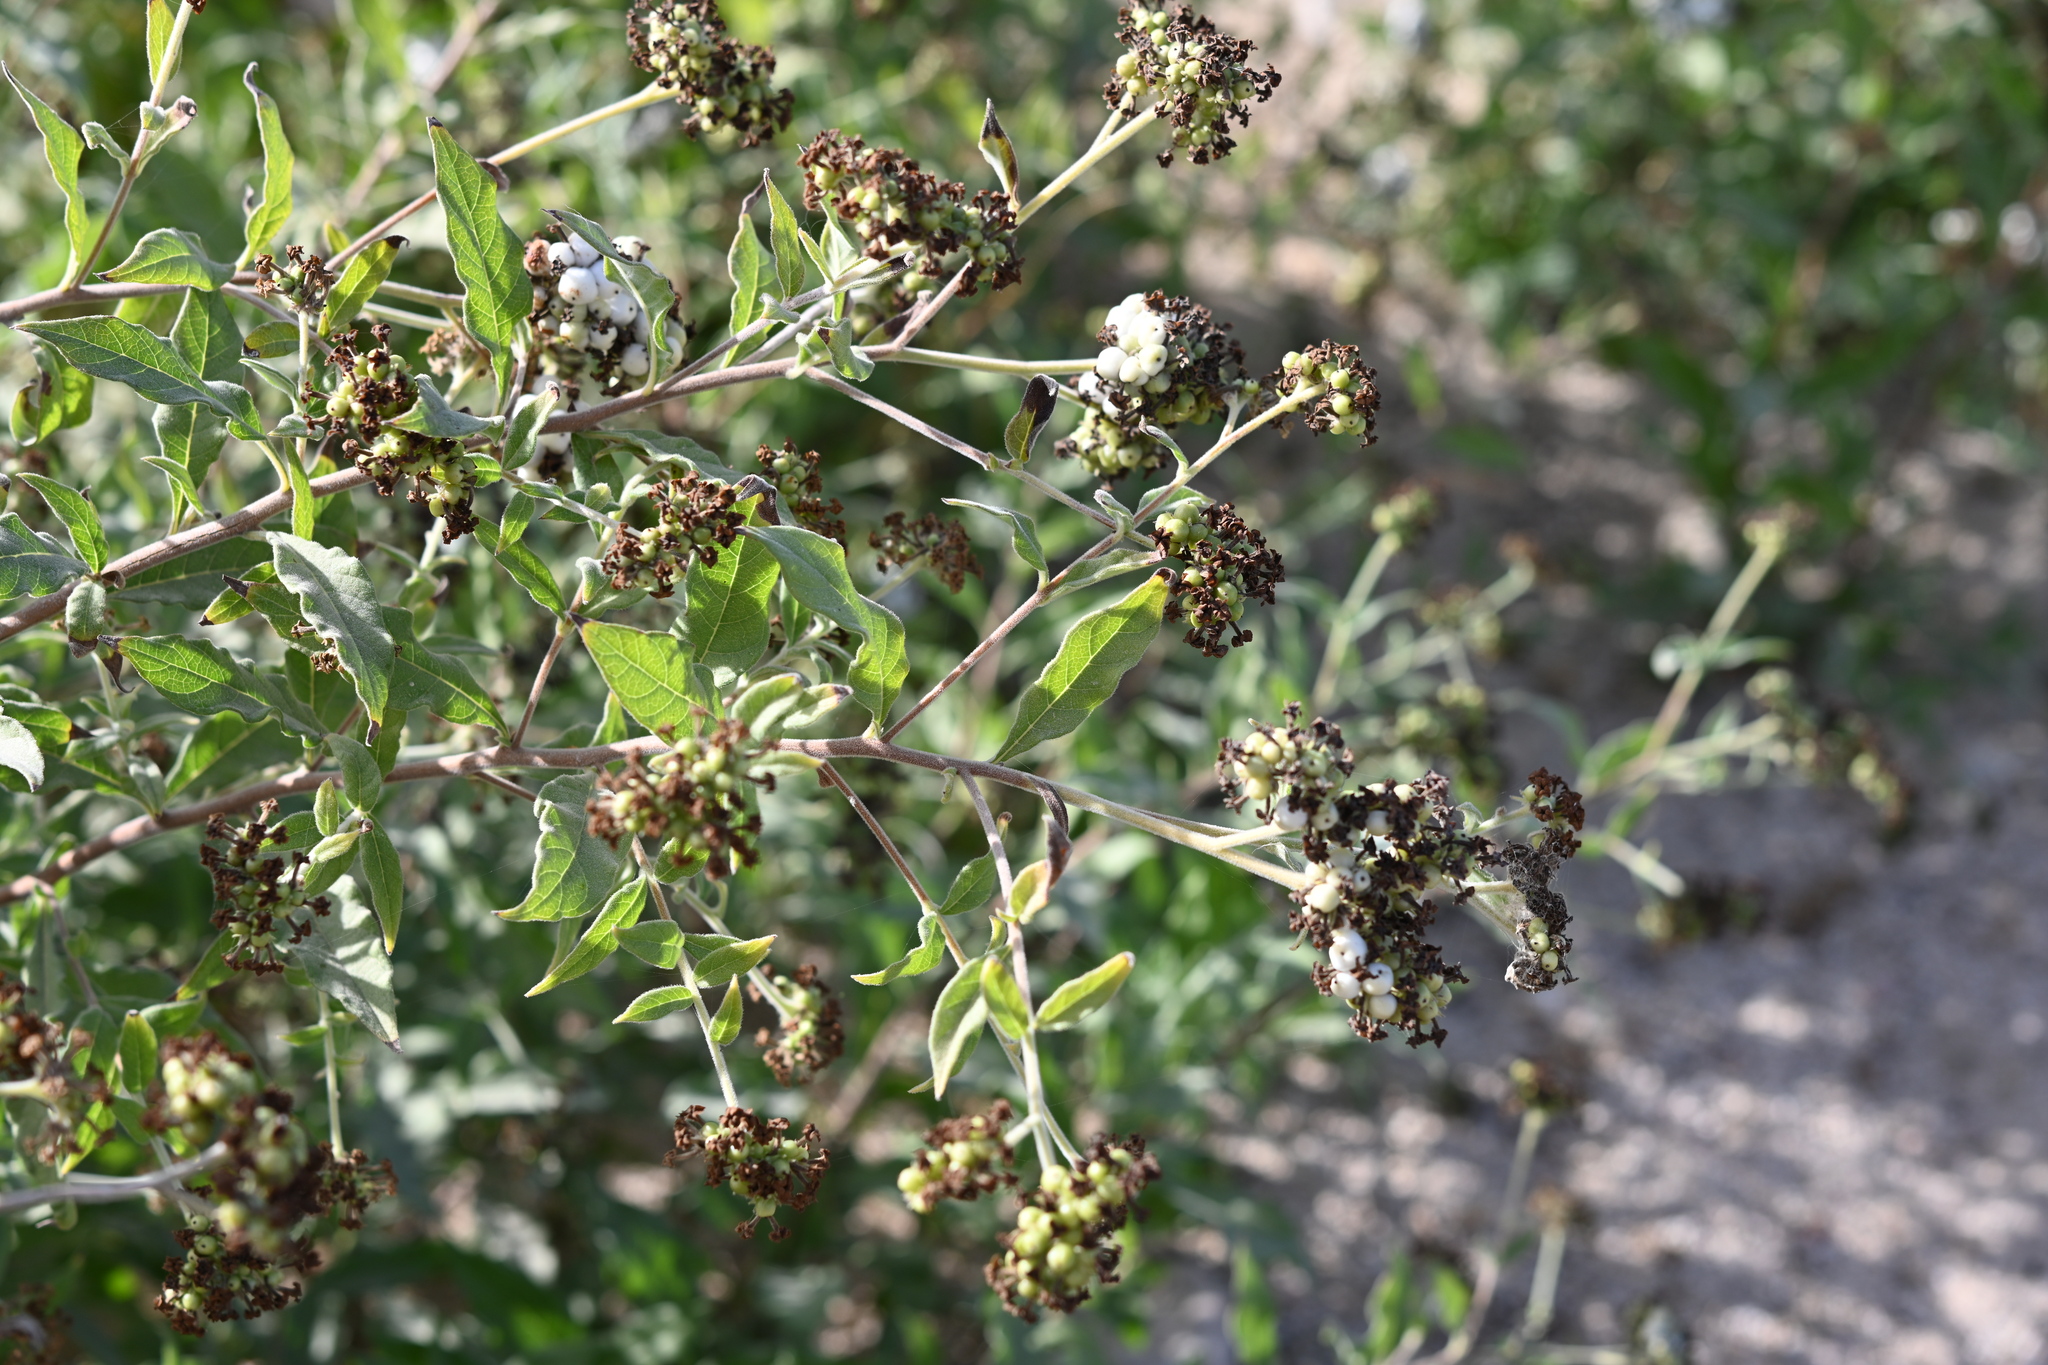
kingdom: Plantae
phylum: Tracheophyta
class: Magnoliopsida
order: Boraginales
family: Heliotropiaceae
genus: Tournefortia
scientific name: Tournefortia mutabilis
